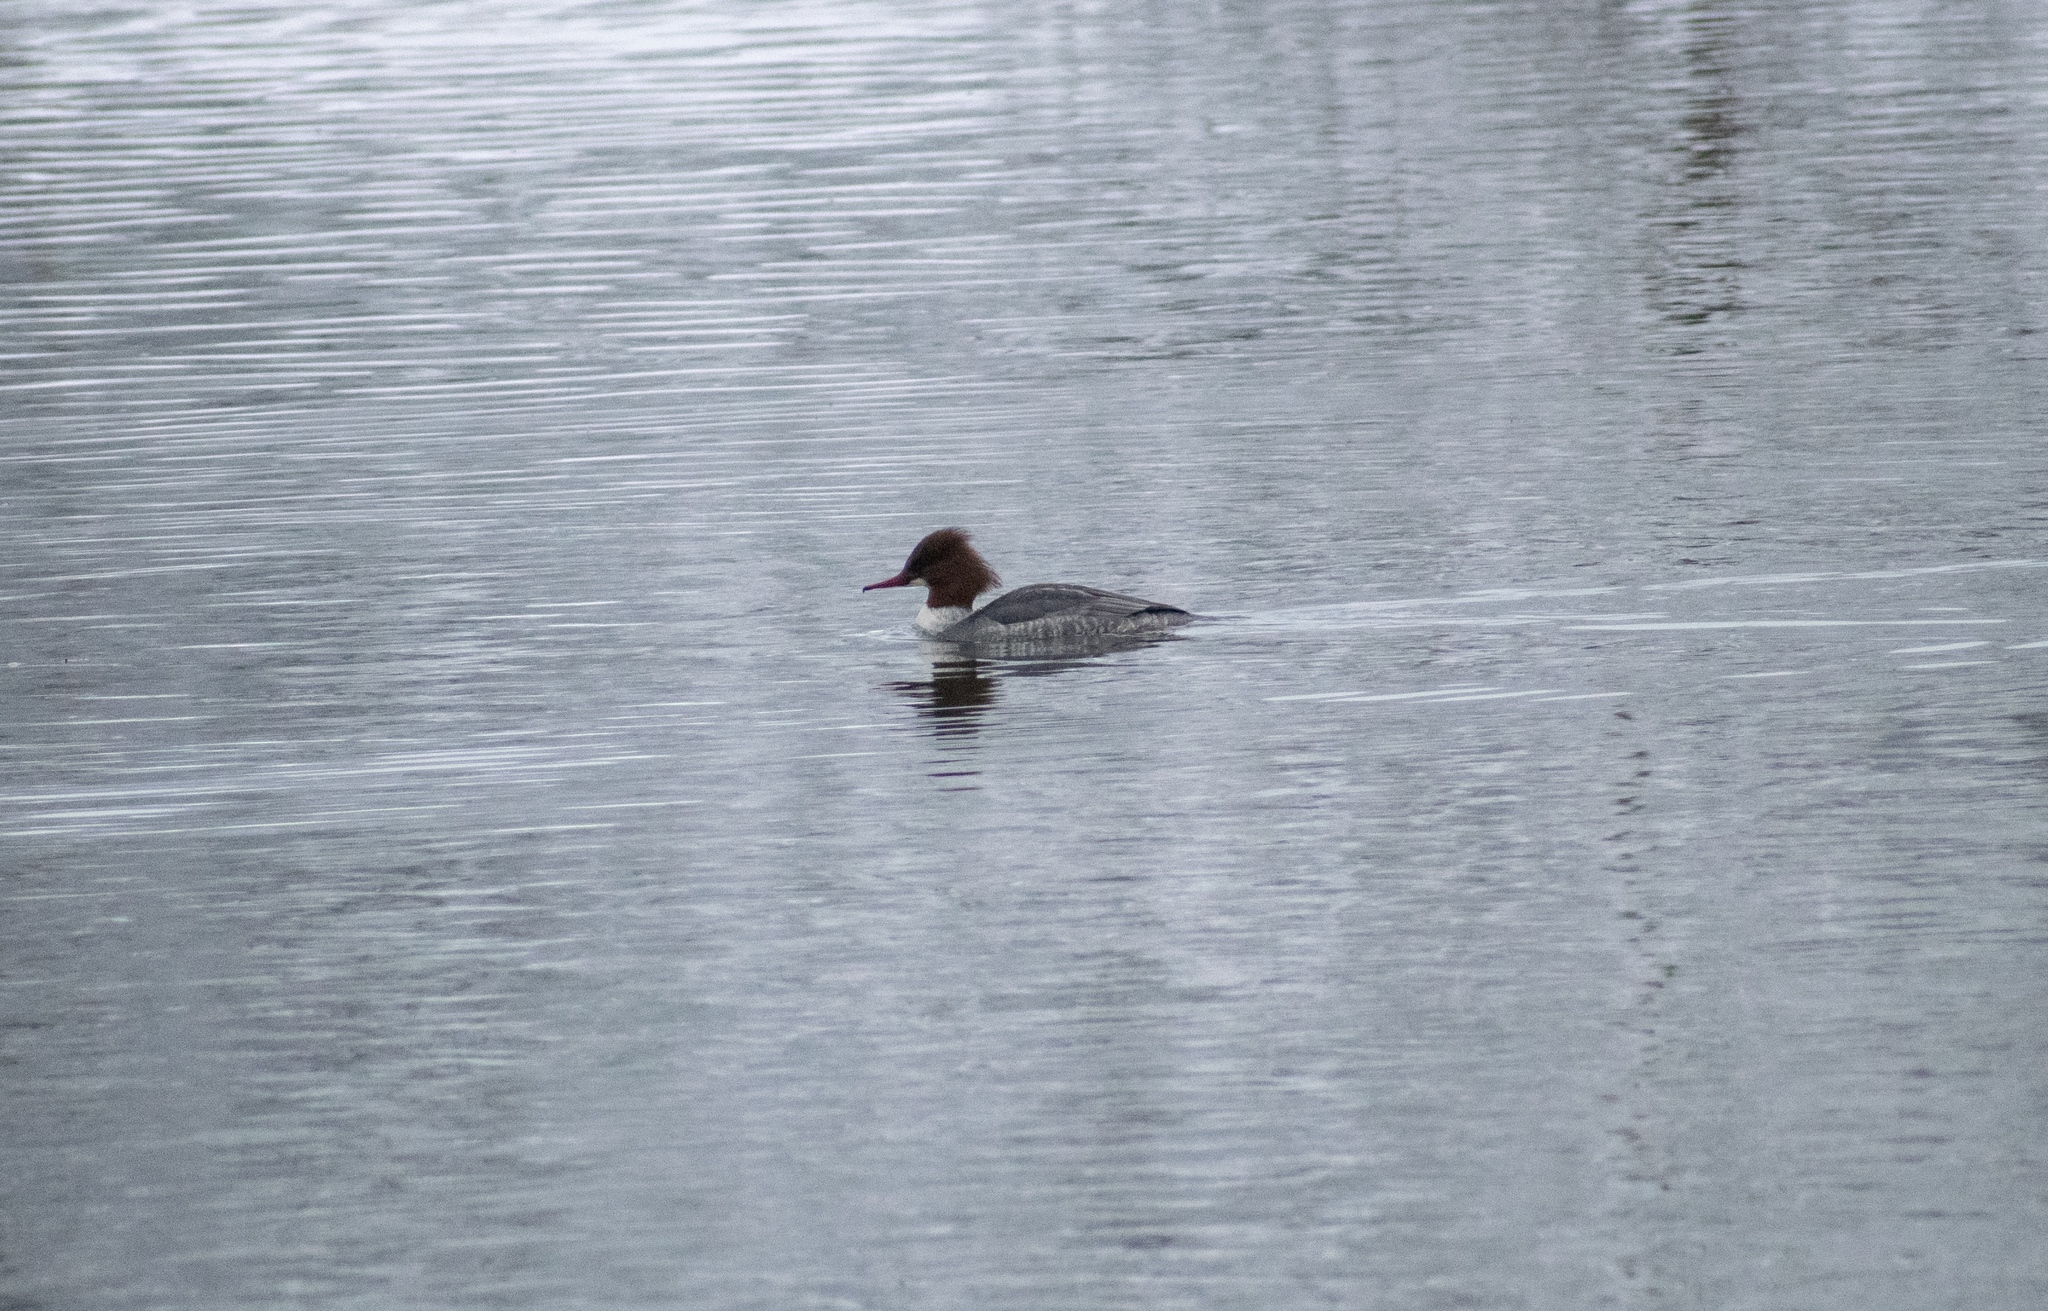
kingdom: Animalia
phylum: Chordata
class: Aves
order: Anseriformes
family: Anatidae
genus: Mergus
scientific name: Mergus merganser
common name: Common merganser
